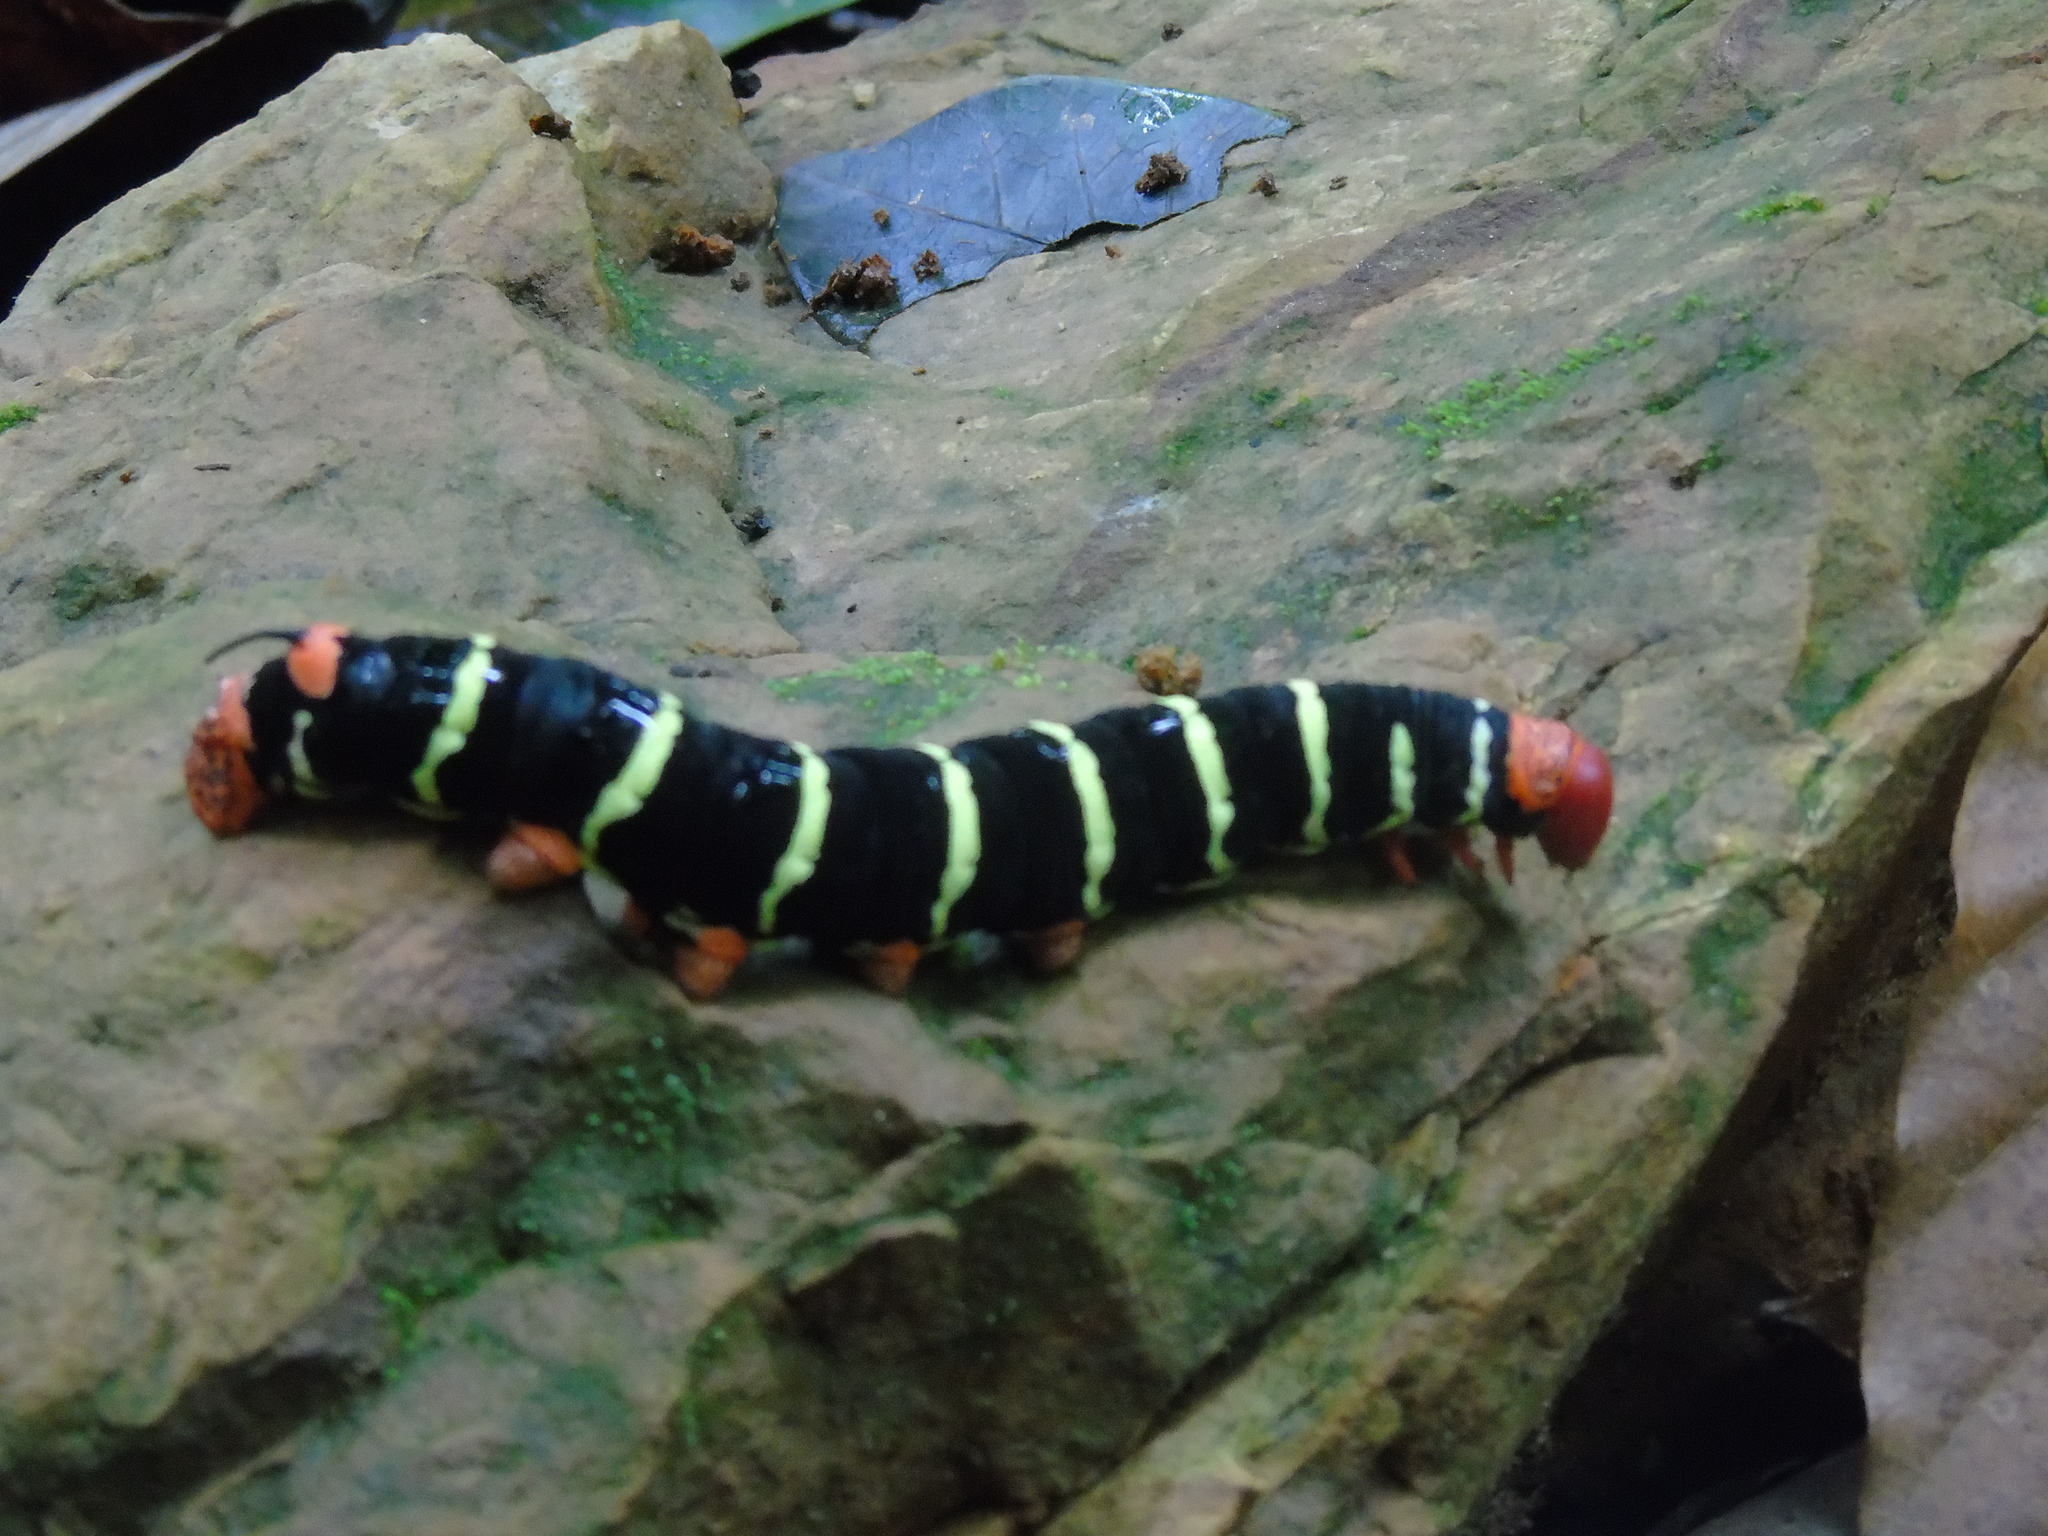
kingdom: Animalia
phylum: Arthropoda
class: Insecta
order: Lepidoptera
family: Sphingidae
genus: Pseudosphinx
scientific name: Pseudosphinx tetrio
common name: Tetrio sphinx
